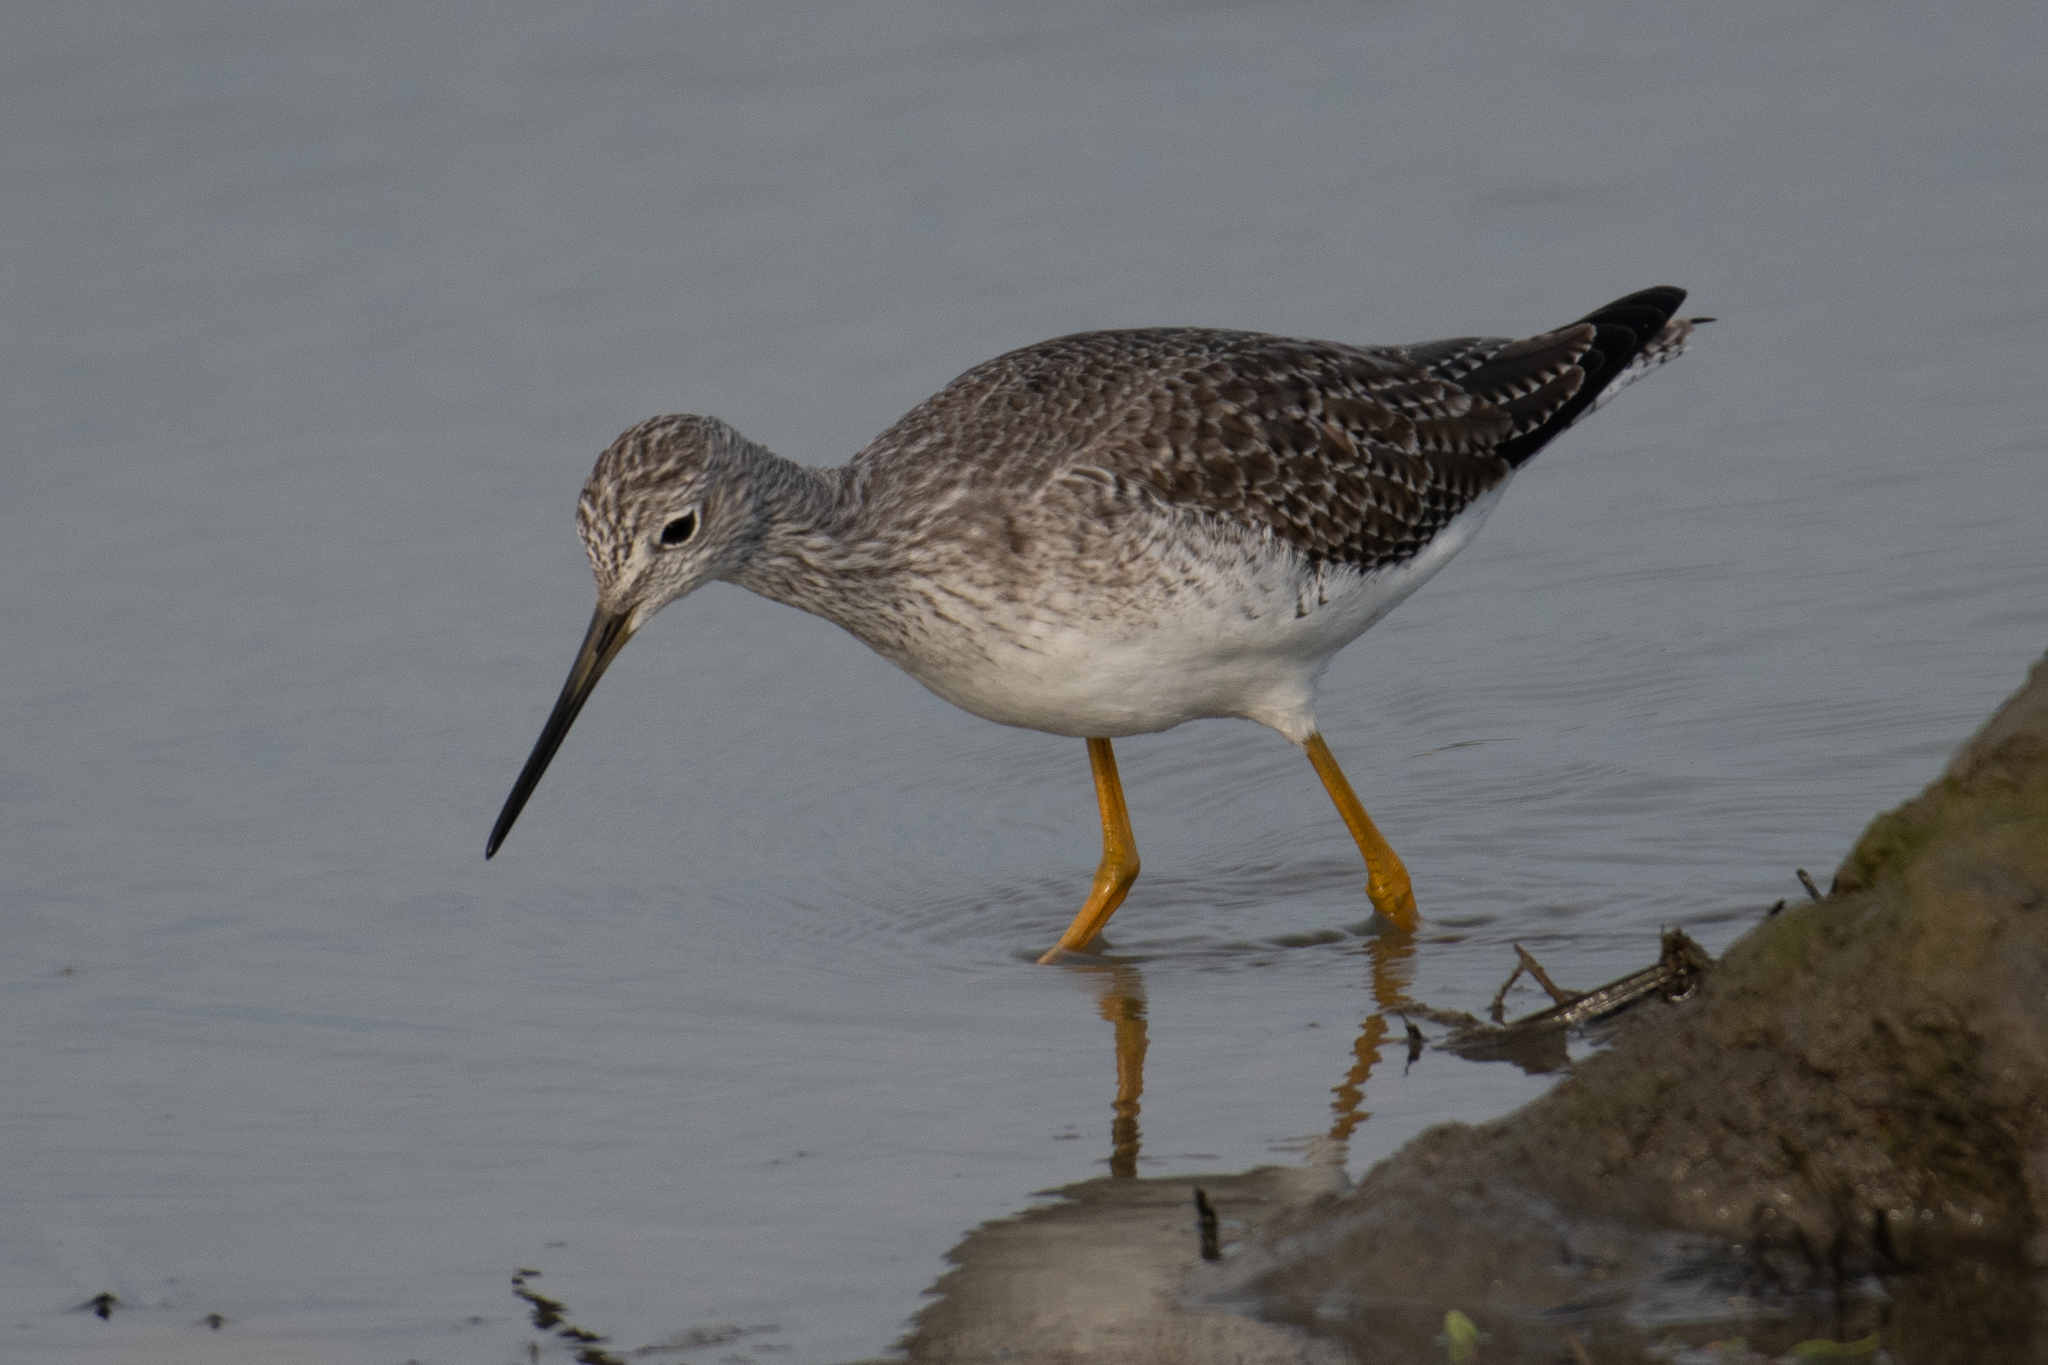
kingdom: Animalia
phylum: Chordata
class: Aves
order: Charadriiformes
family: Scolopacidae
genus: Tringa
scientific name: Tringa melanoleuca
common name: Greater yellowlegs
